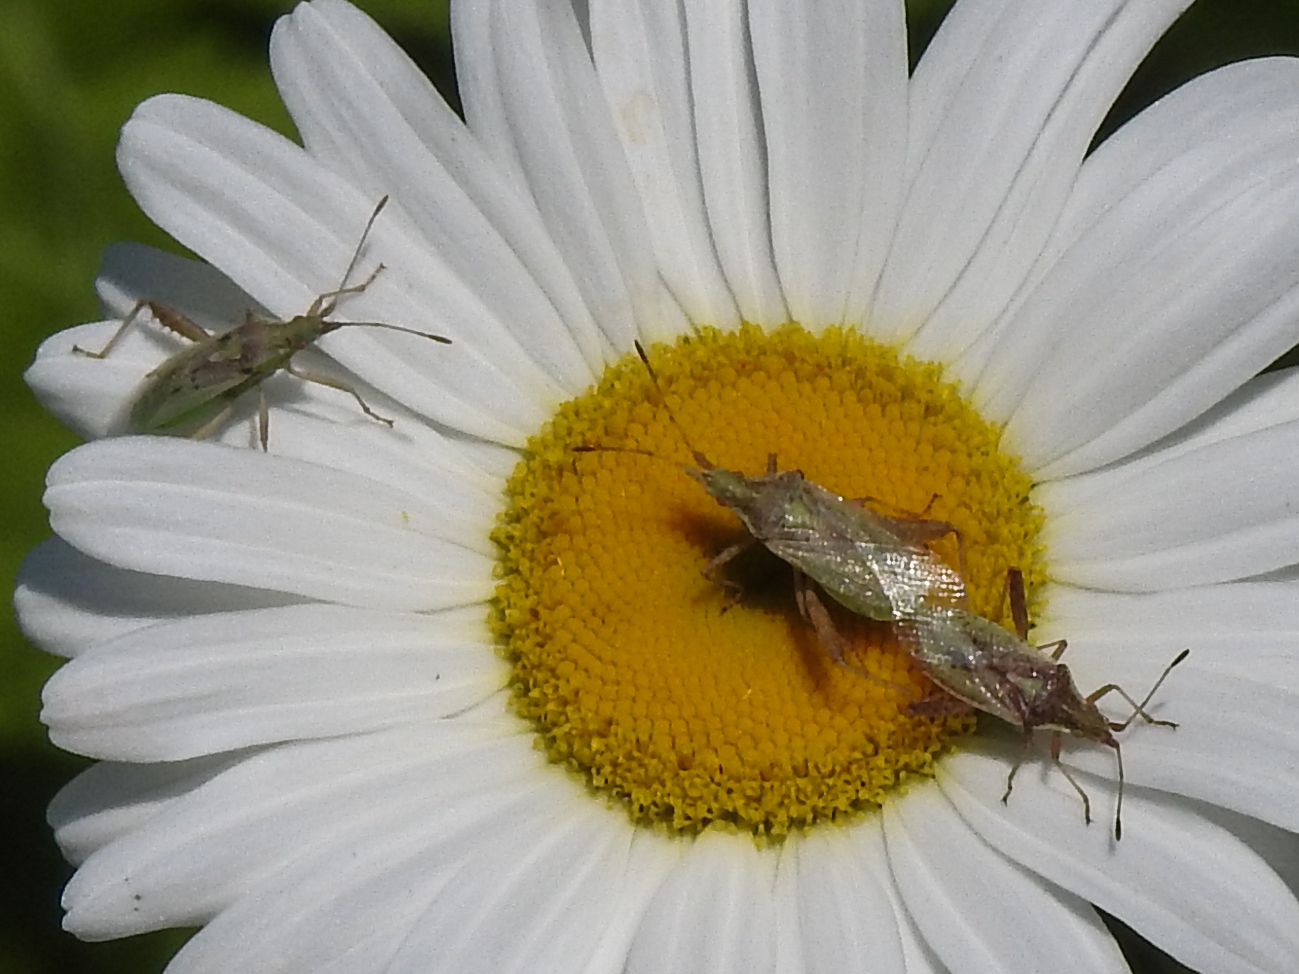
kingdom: Animalia
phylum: Arthropoda
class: Insecta
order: Hemiptera
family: Rhopalidae
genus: Harmostes
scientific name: Harmostes reflexulus
